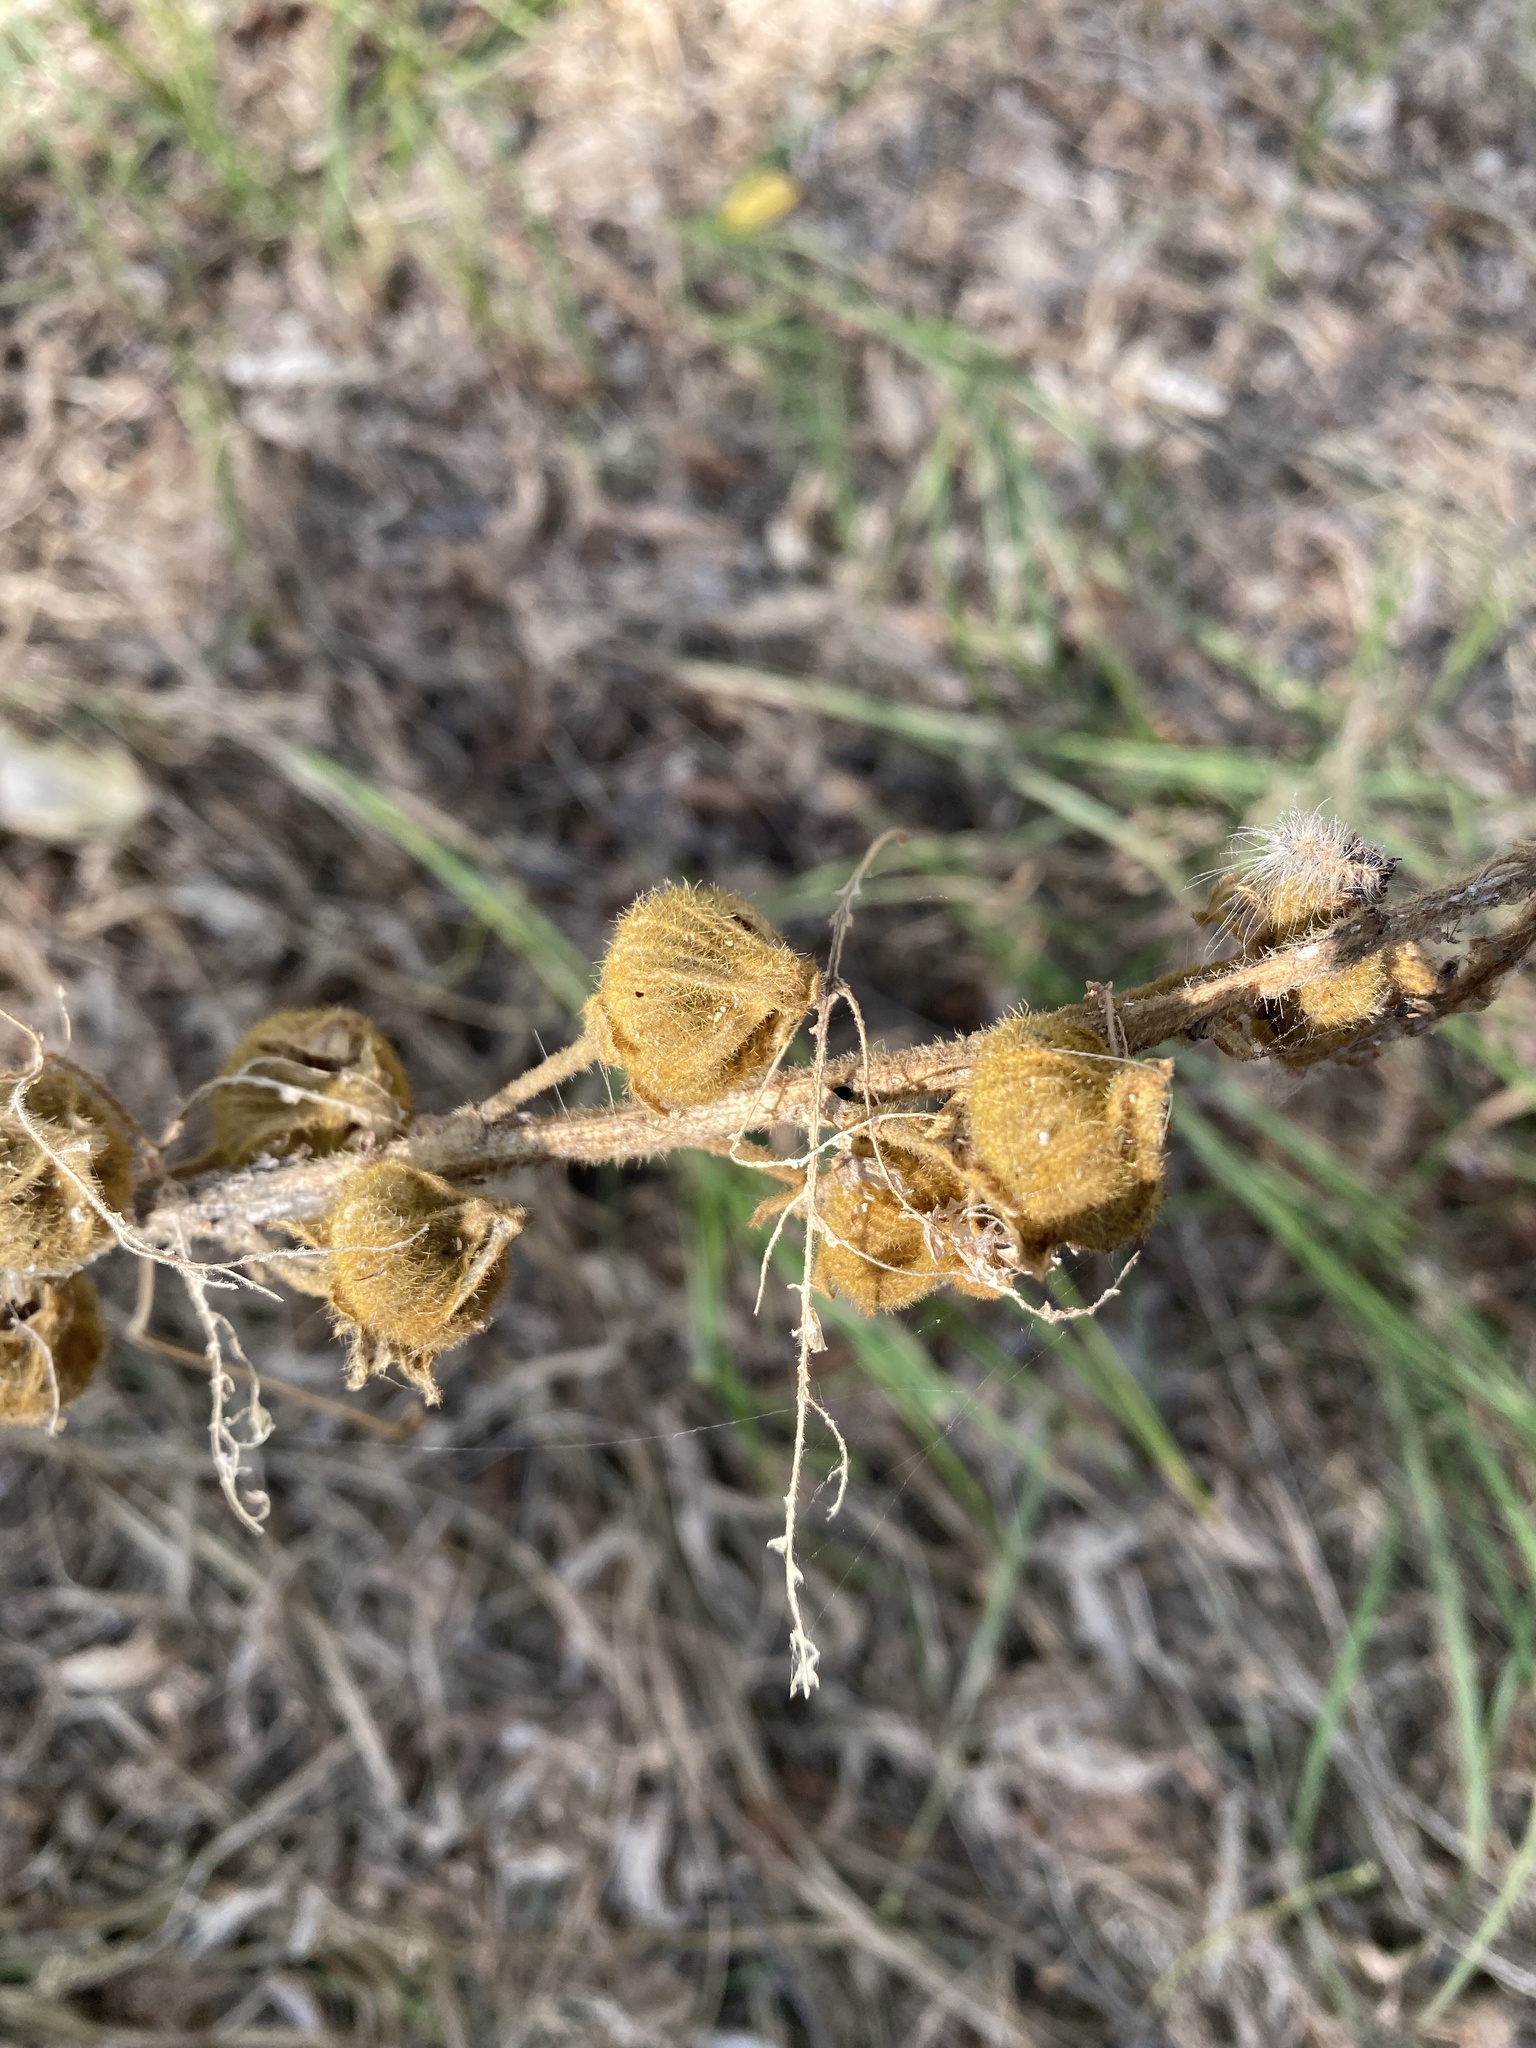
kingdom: Plantae
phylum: Tracheophyta
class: Magnoliopsida
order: Malvales
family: Malvaceae
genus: Alcea
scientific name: Alcea rugosa
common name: Russian hollyhock
